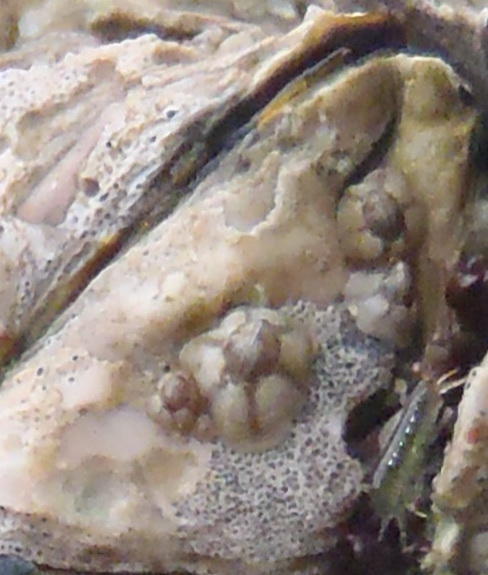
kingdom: Animalia
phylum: Arthropoda
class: Maxillopoda
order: Sessilia
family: Chthamalidae
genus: Chthamalus
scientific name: Chthamalus dentatus
